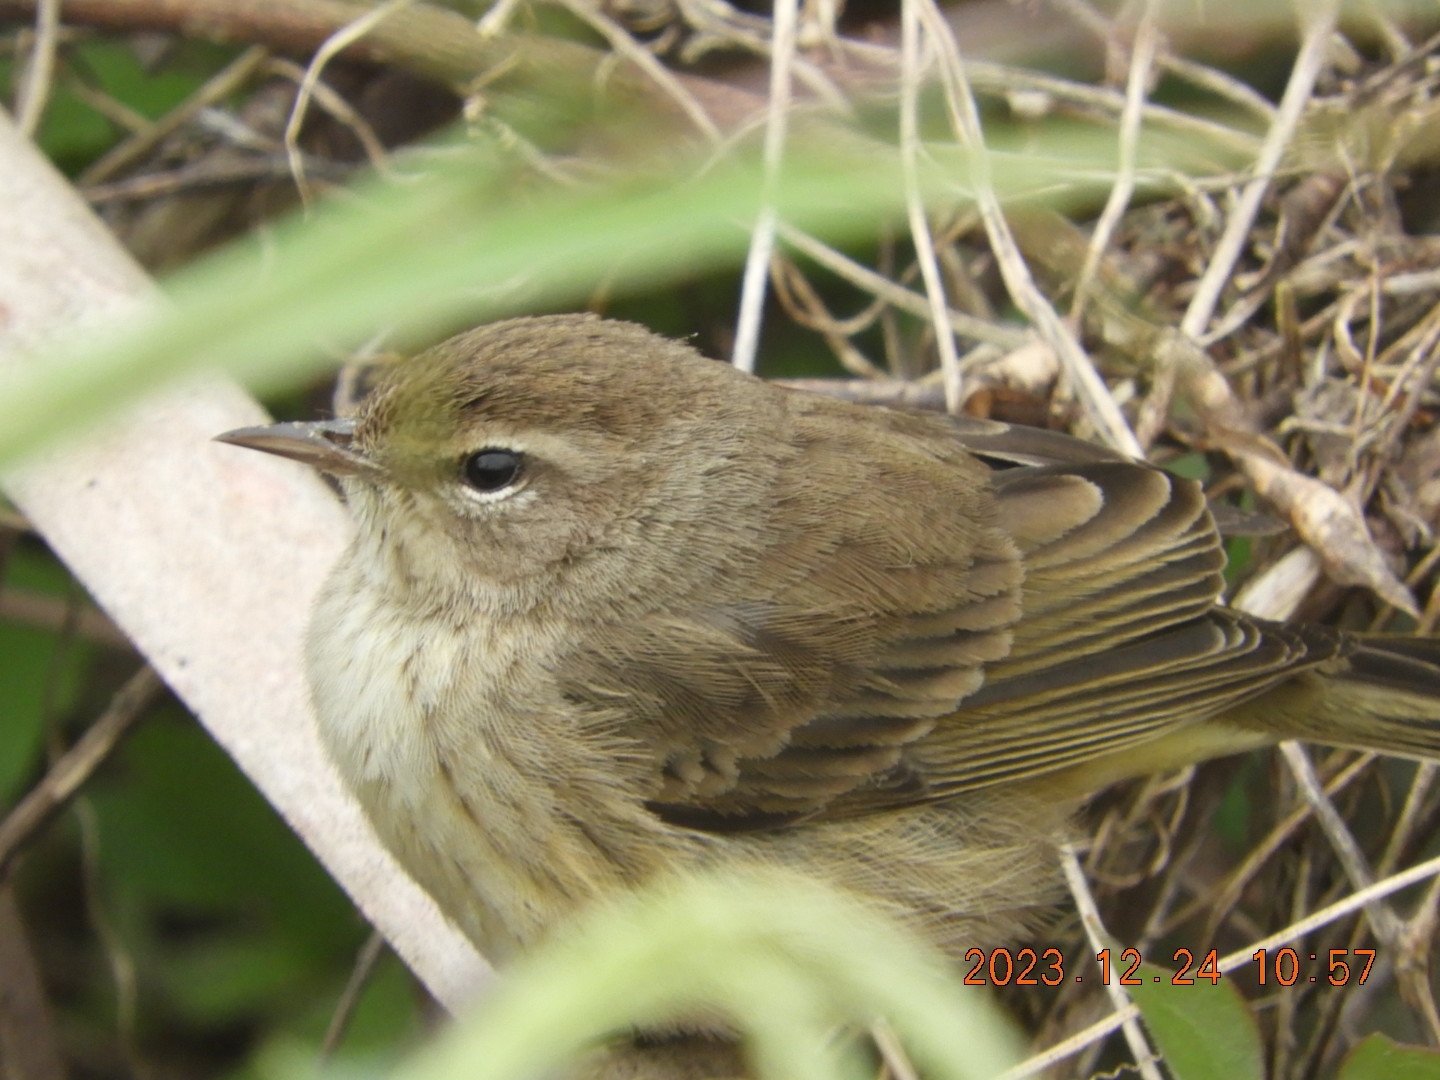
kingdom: Animalia
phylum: Chordata
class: Aves
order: Passeriformes
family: Parulidae
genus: Setophaga
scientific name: Setophaga palmarum
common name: Palm warbler
